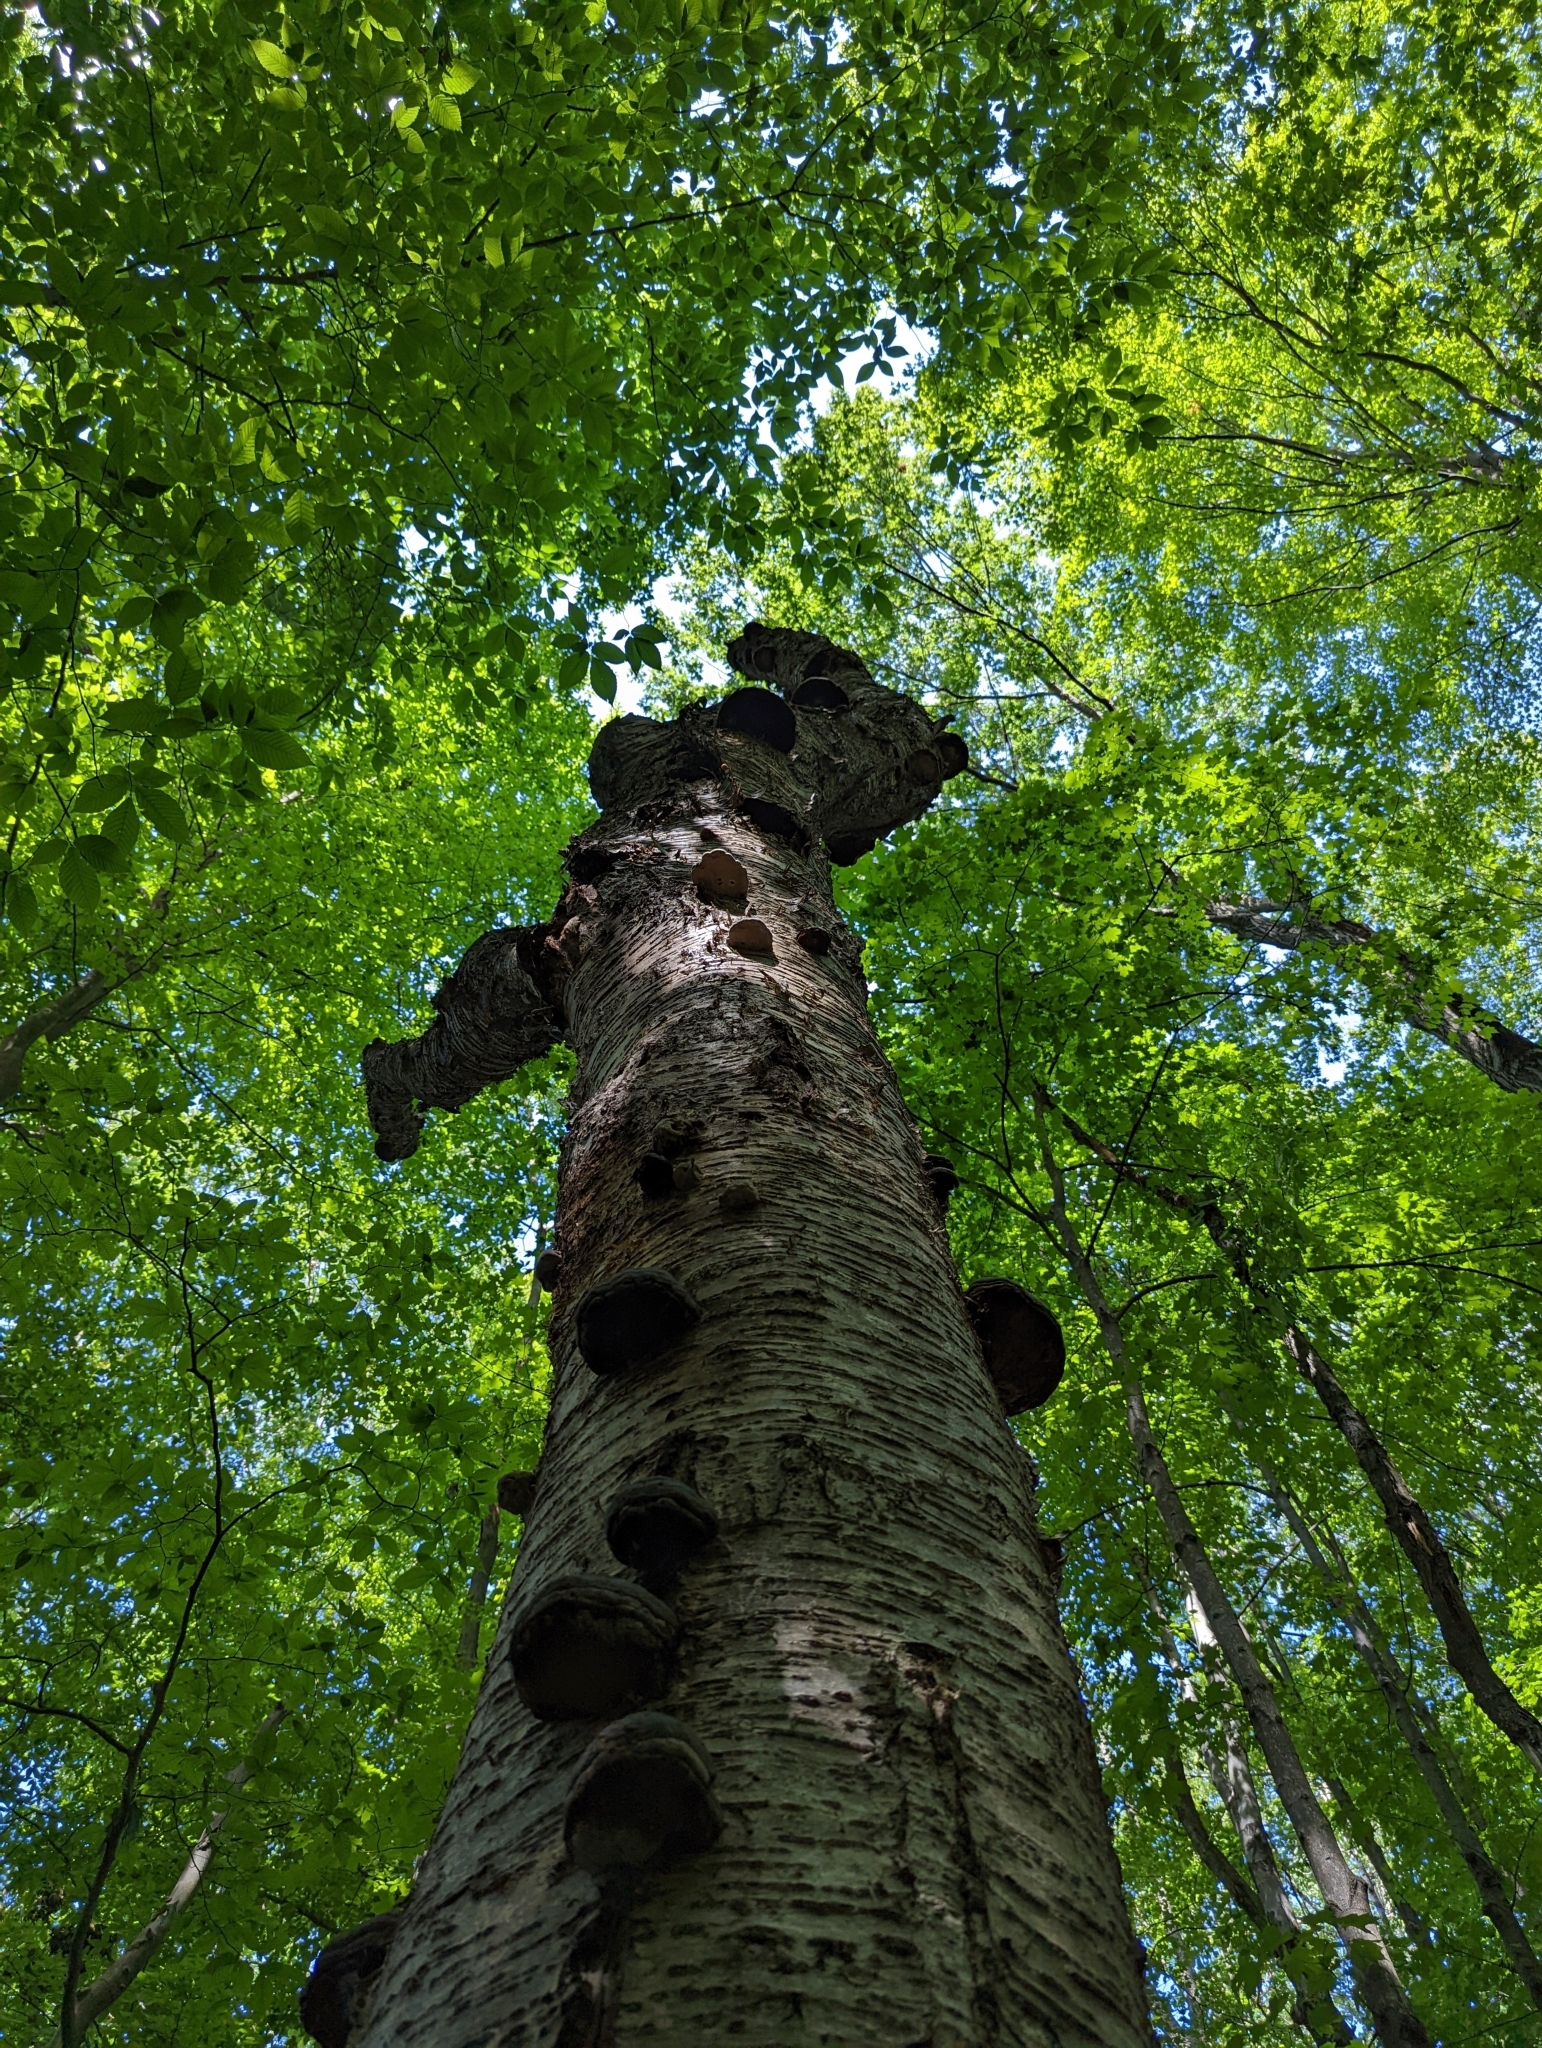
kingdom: Fungi
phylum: Basidiomycota
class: Agaricomycetes
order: Polyporales
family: Polyporaceae
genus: Fomes
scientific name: Fomes fomentarius
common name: Hoof fungus
